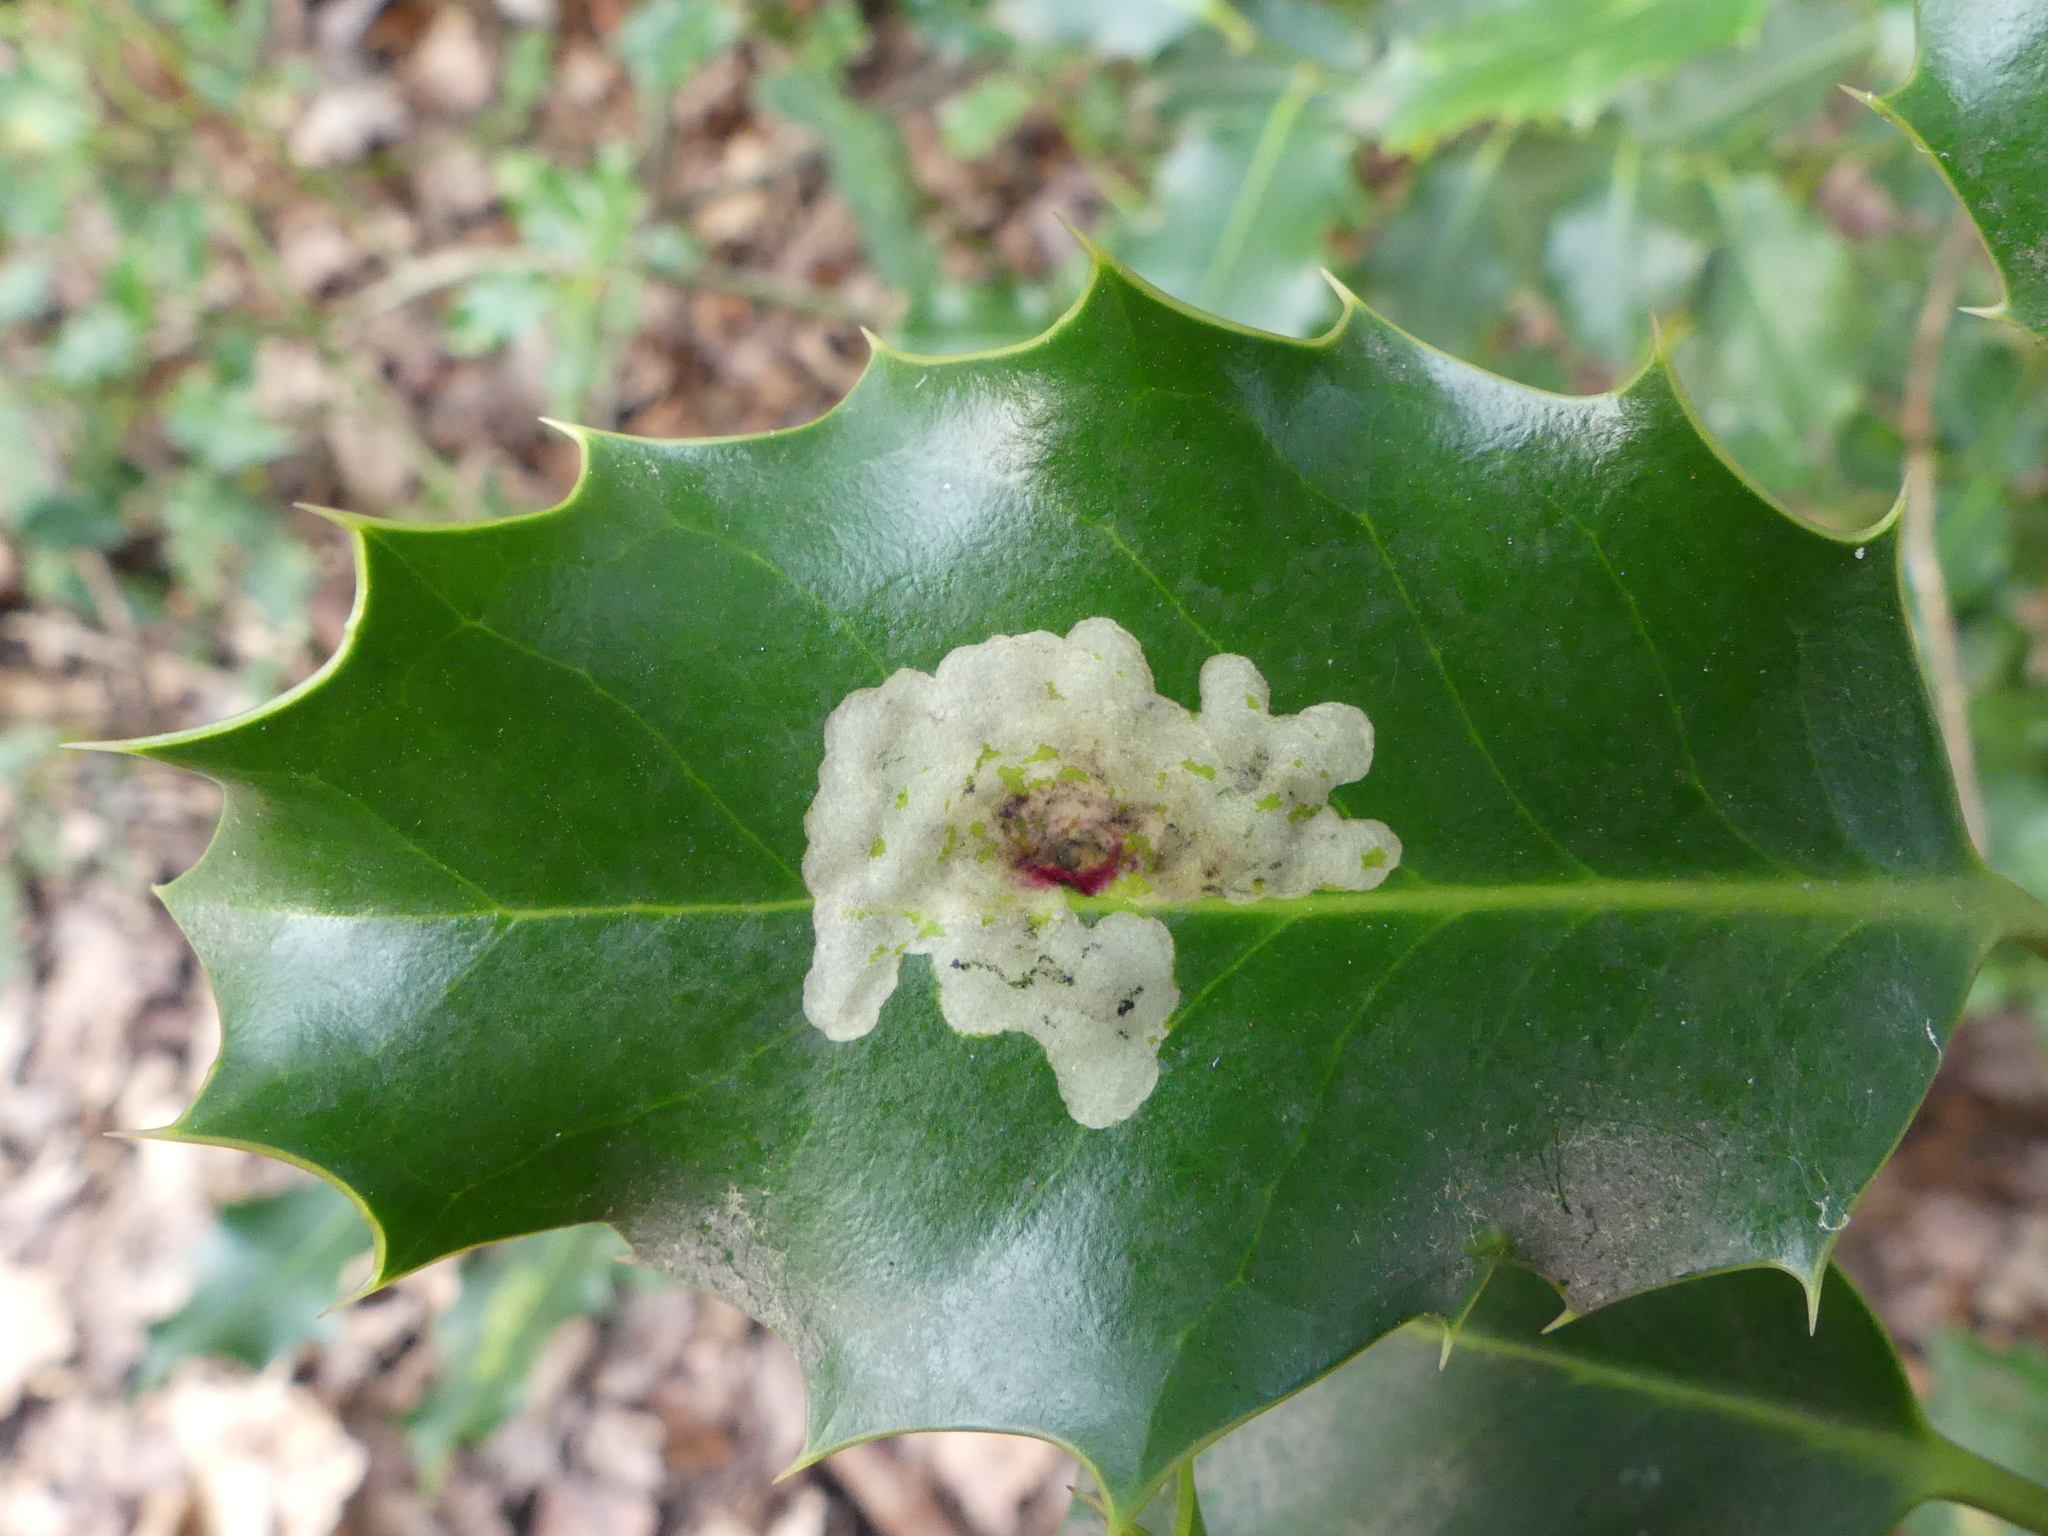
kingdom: Animalia
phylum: Arthropoda
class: Insecta
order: Diptera
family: Agromyzidae
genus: Phytomyza
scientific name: Phytomyza ilicis
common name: Holly leafminer
